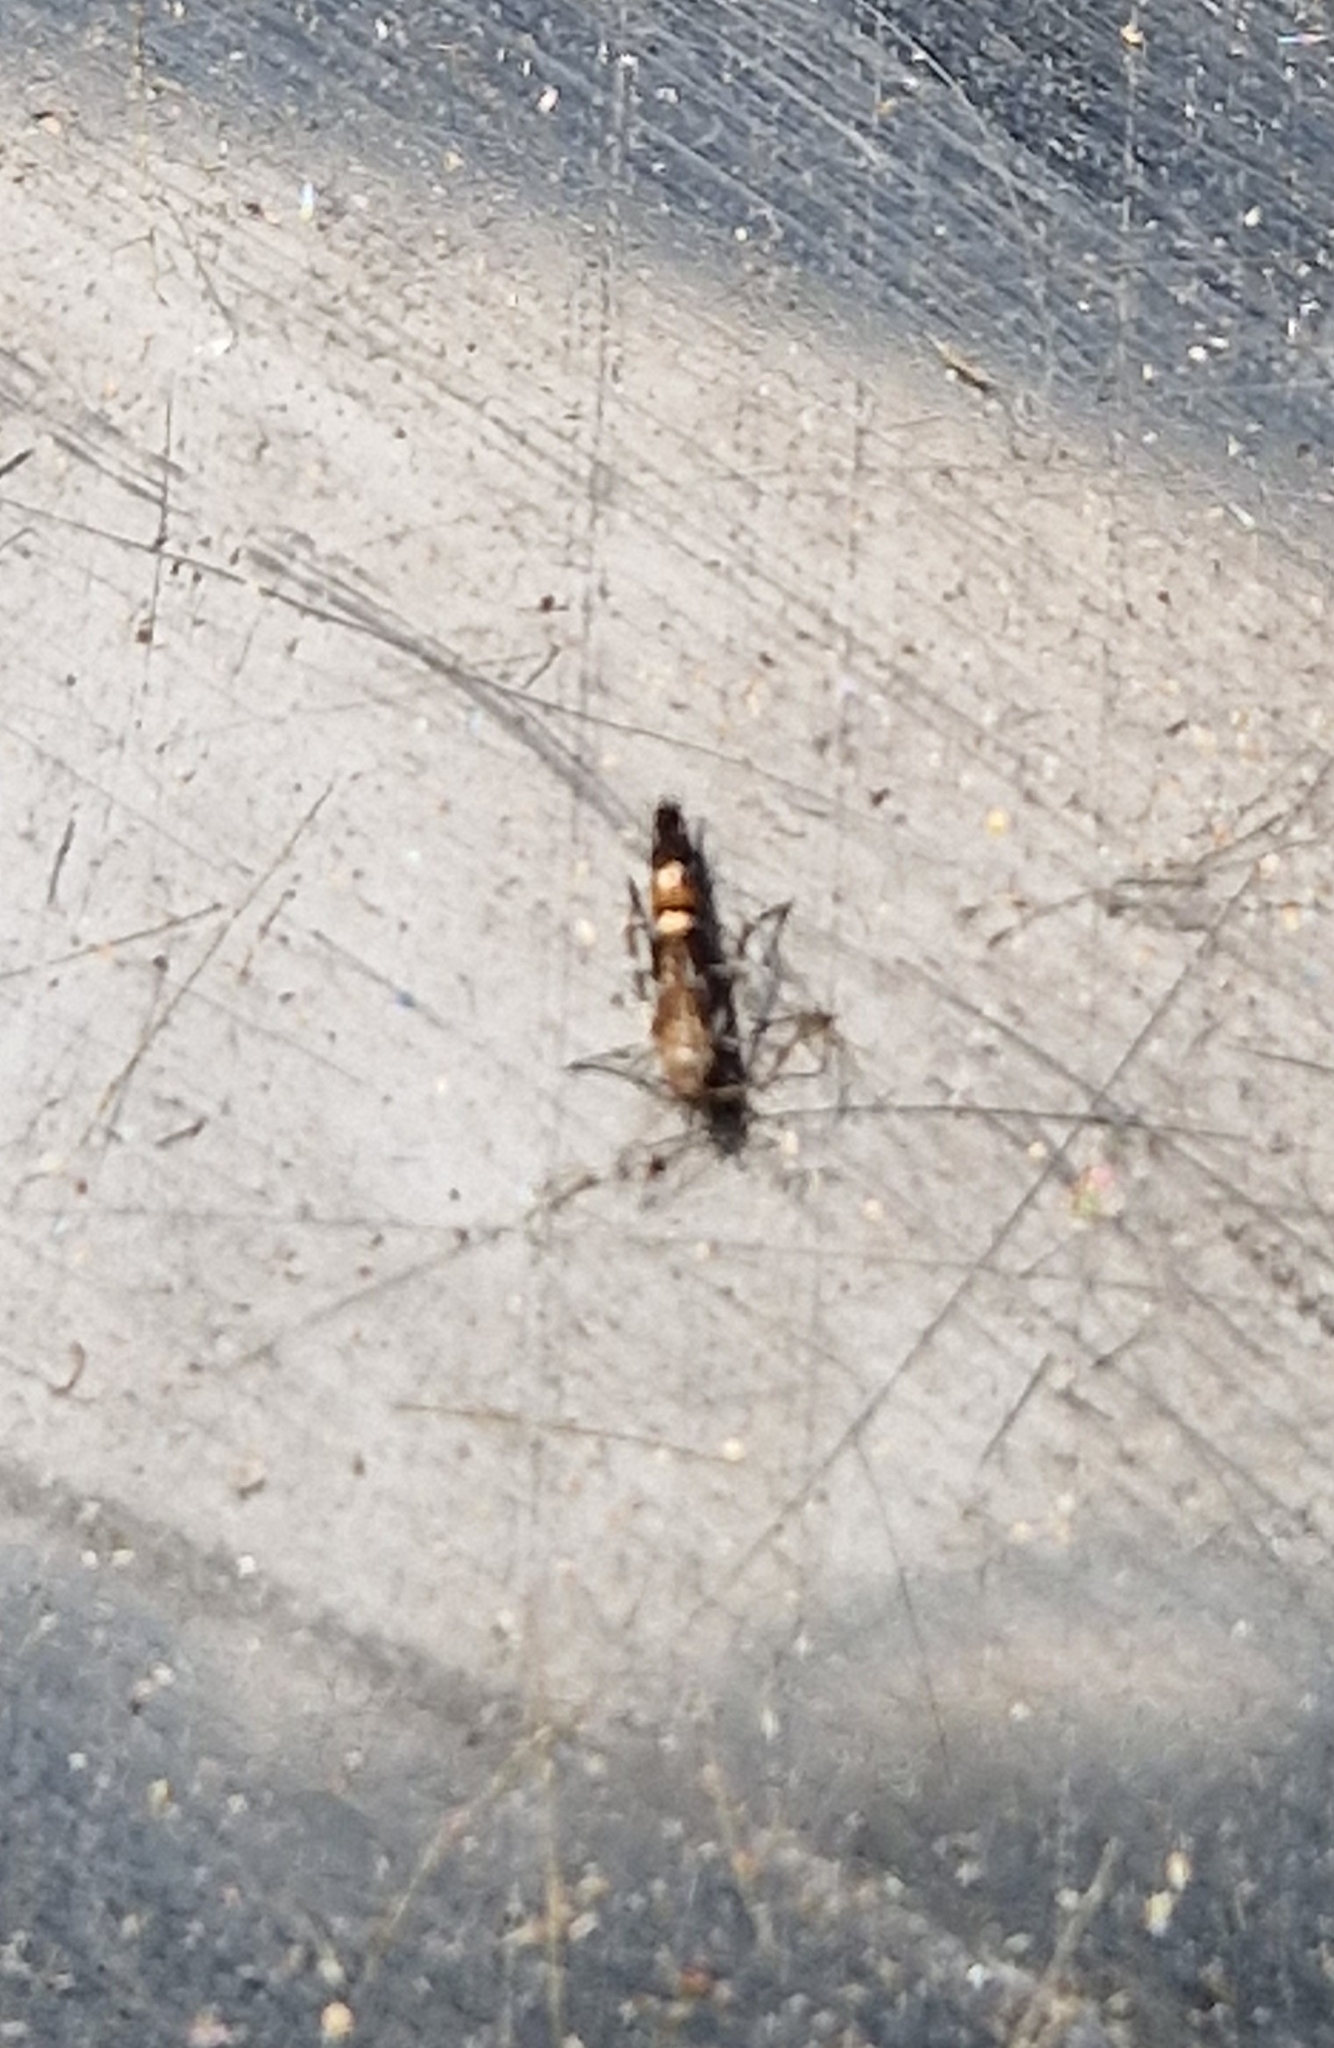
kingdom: Animalia
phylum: Arthropoda
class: Insecta
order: Lepidoptera
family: Cosmopterigidae
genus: Cosmopterix
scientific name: Cosmopterix pulchrimella
